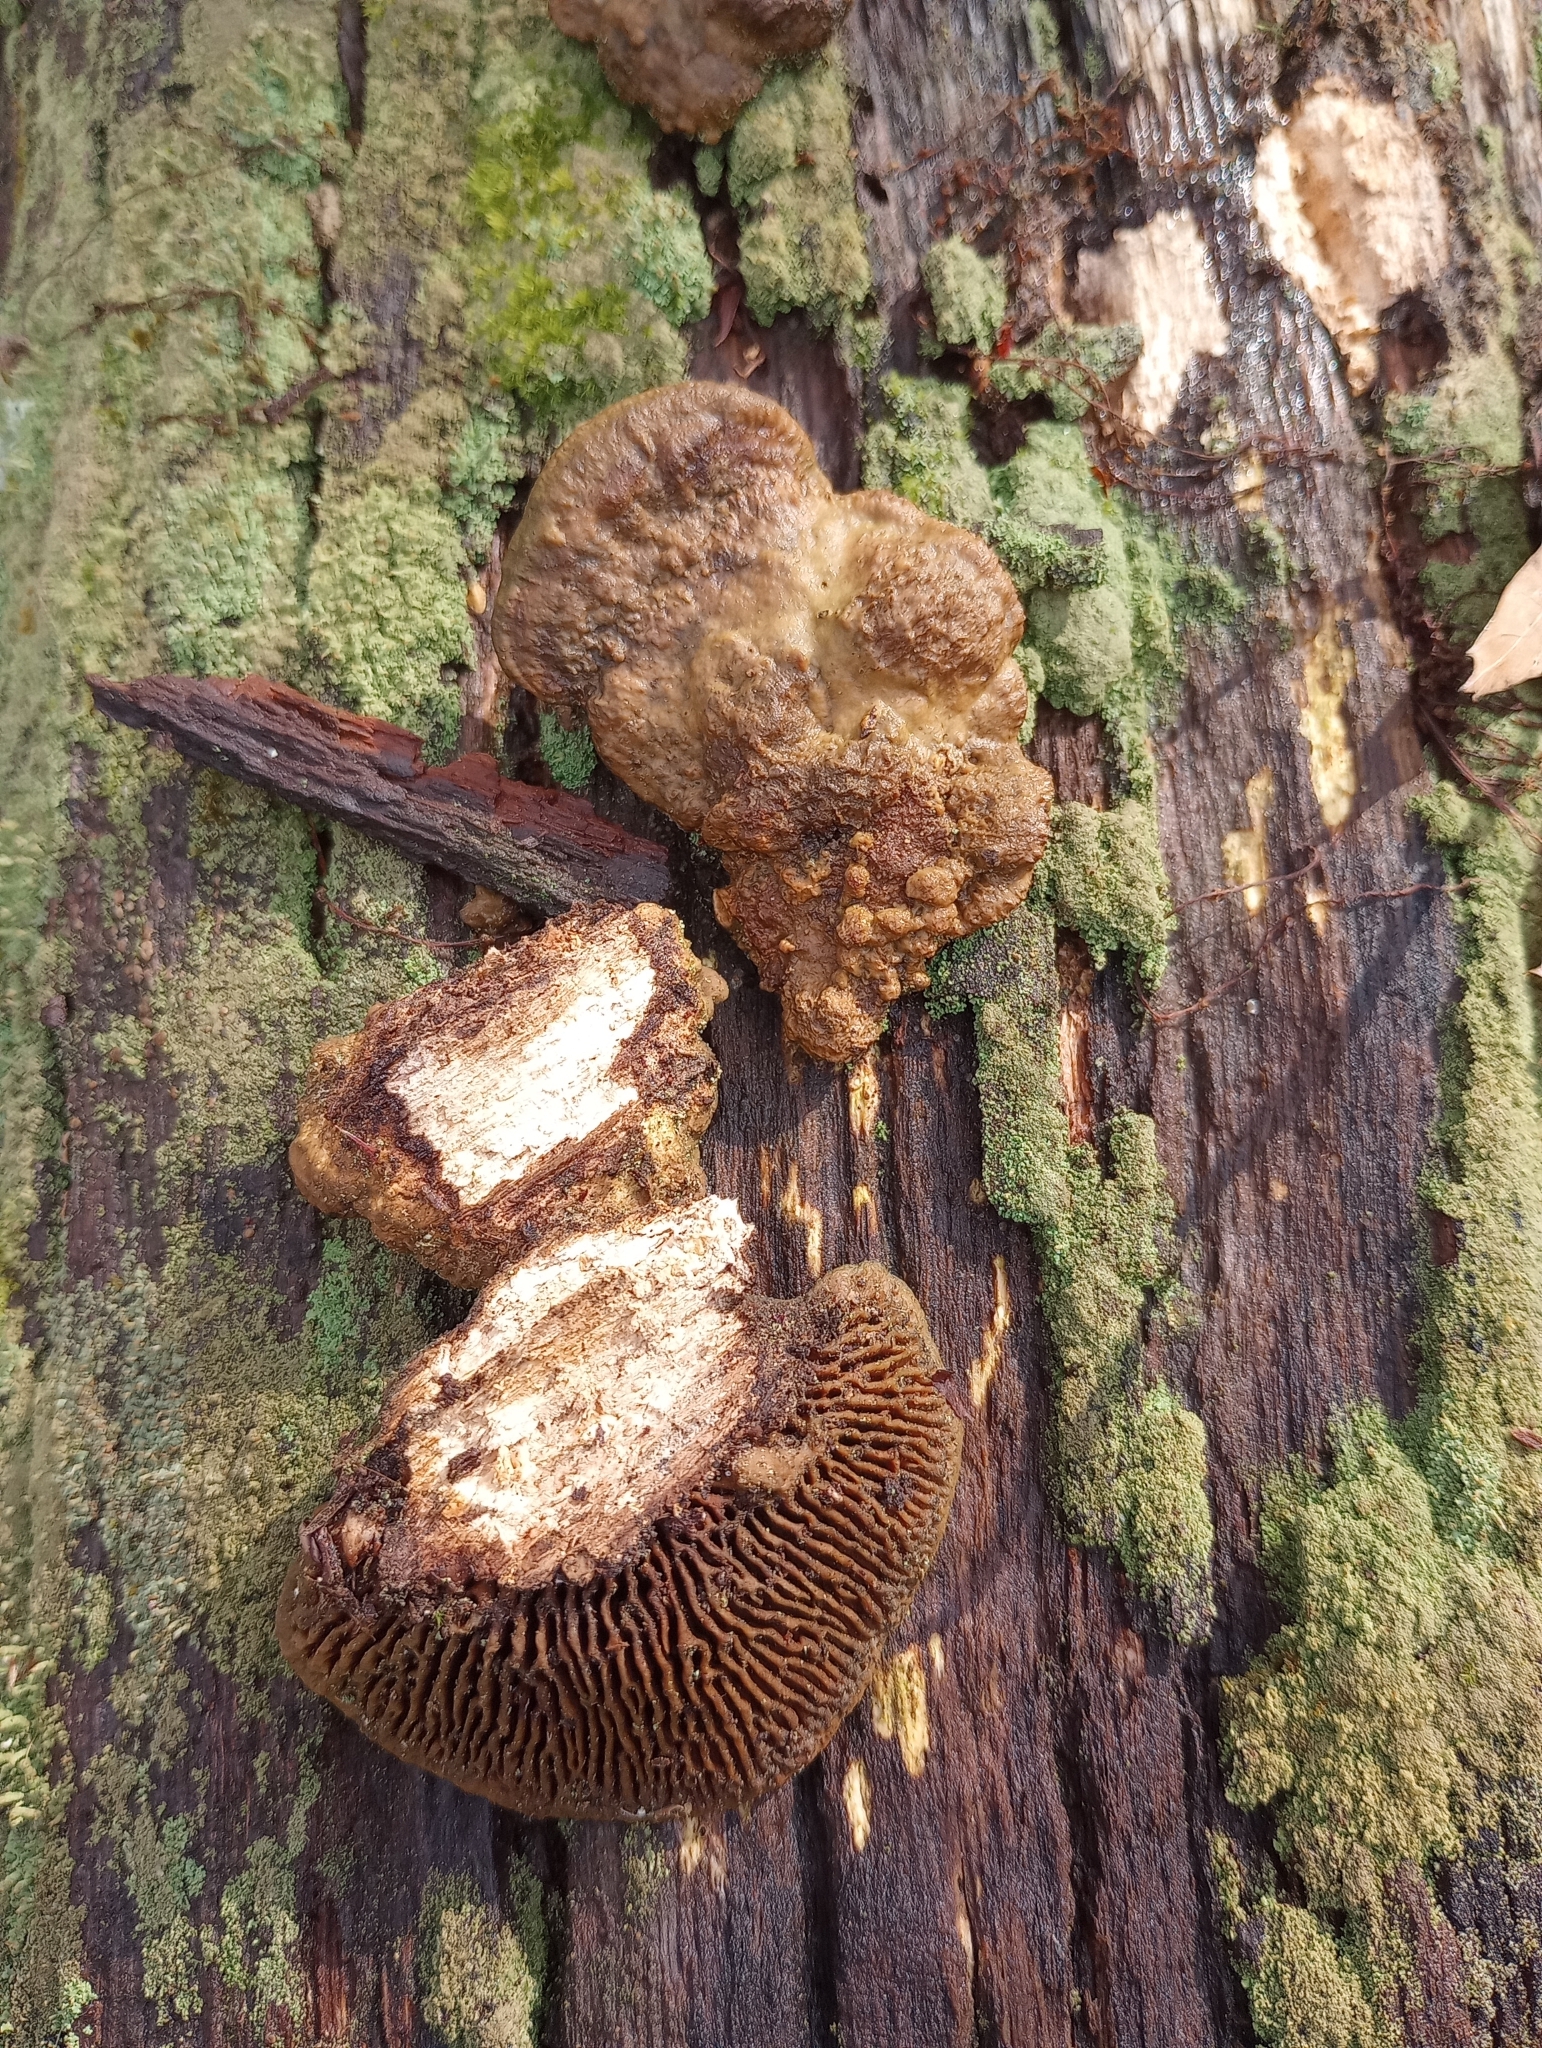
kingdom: Fungi
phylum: Basidiomycota
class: Agaricomycetes
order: Polyporales
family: Fomitopsidaceae
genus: Fomitopsis
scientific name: Fomitopsis
